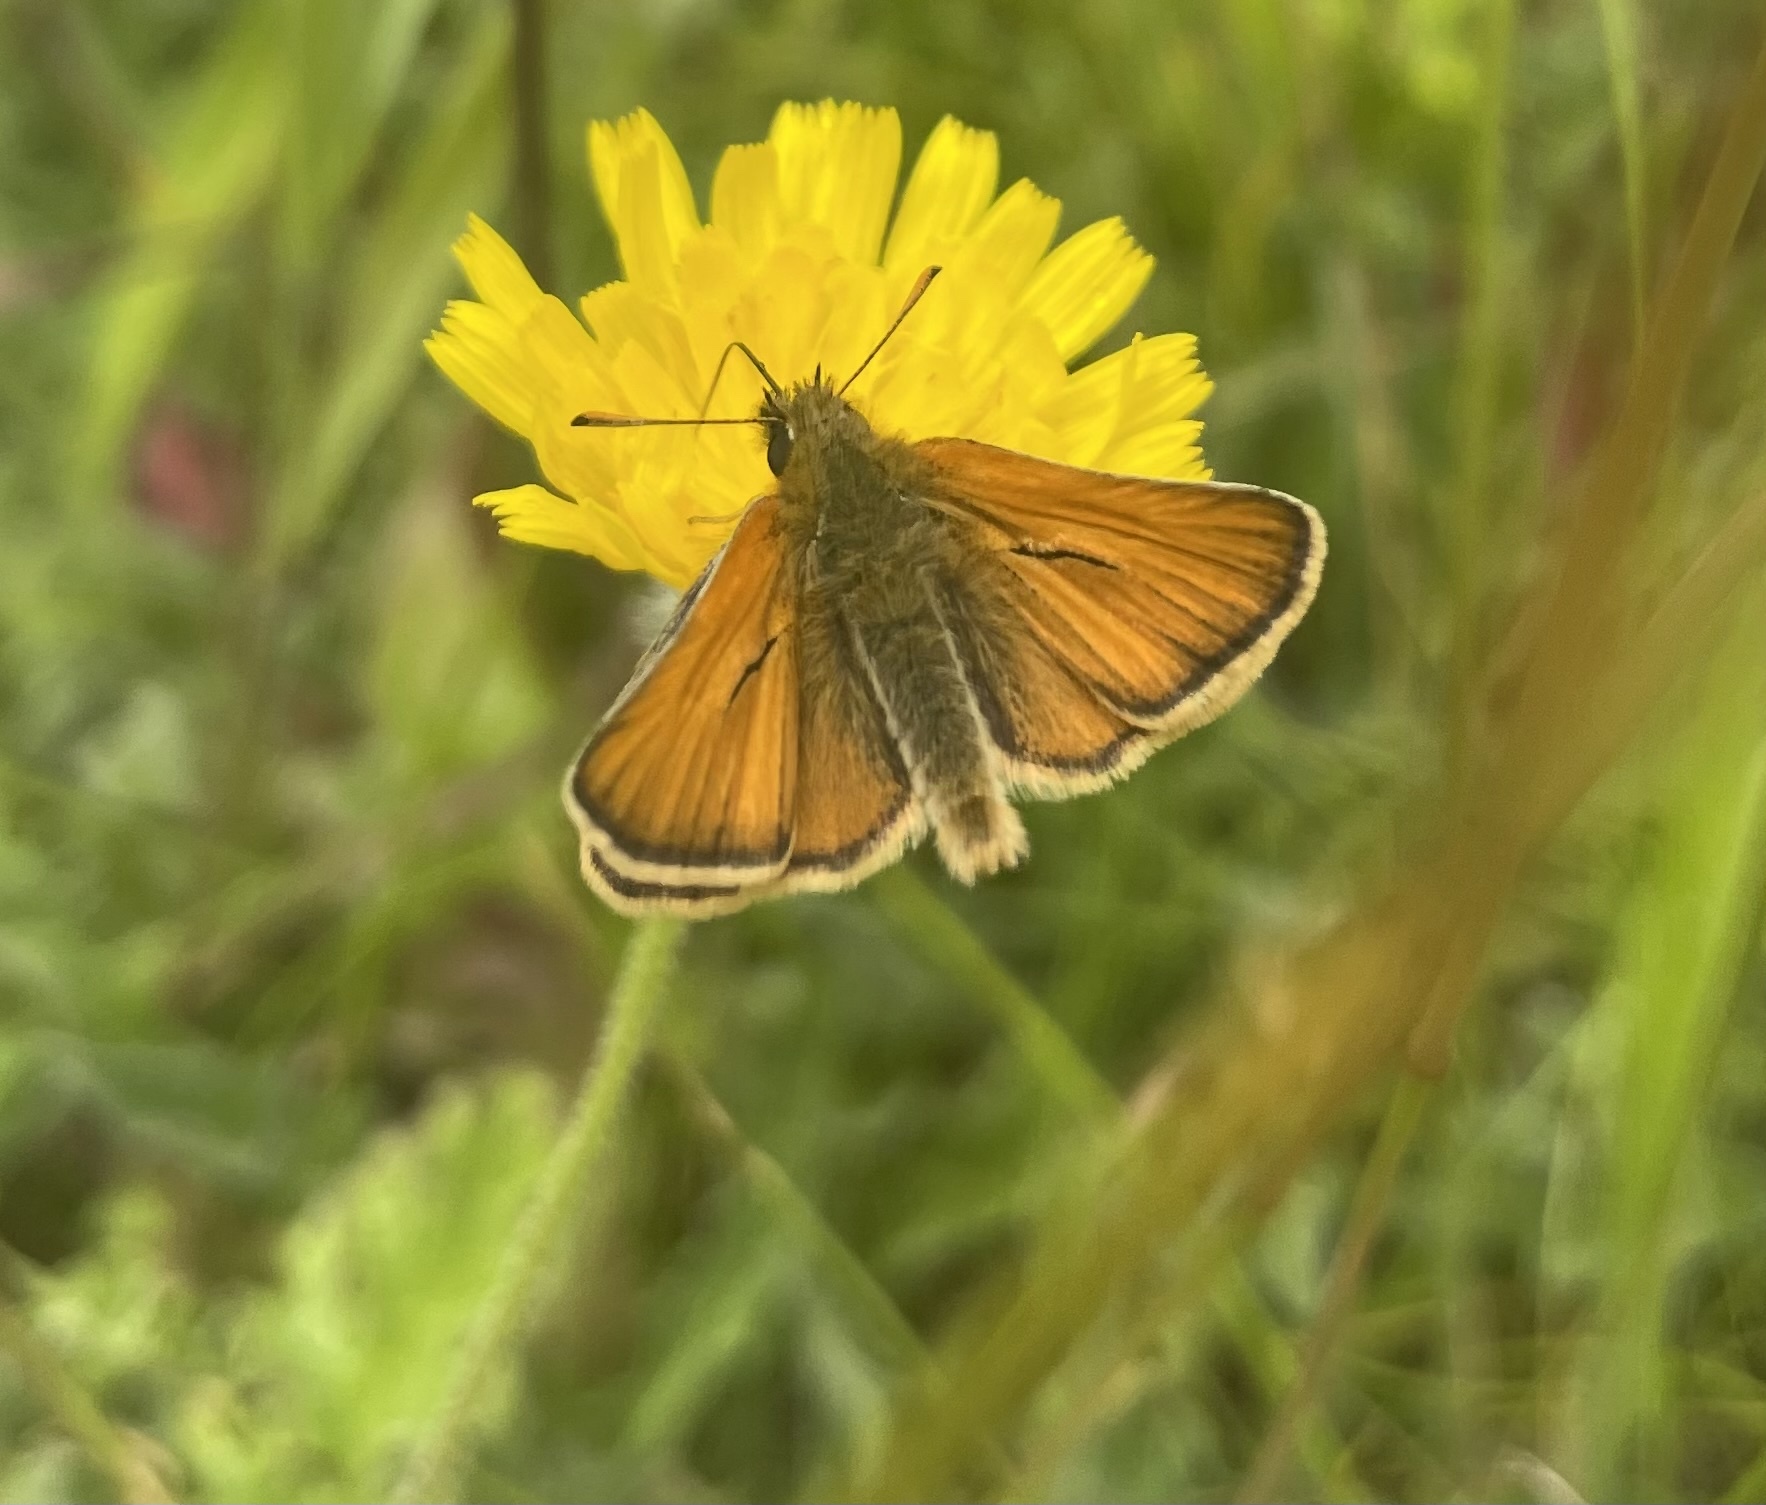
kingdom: Animalia
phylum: Arthropoda
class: Insecta
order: Lepidoptera
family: Hesperiidae
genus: Thymelicus
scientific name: Thymelicus sylvestris
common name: Small skipper
